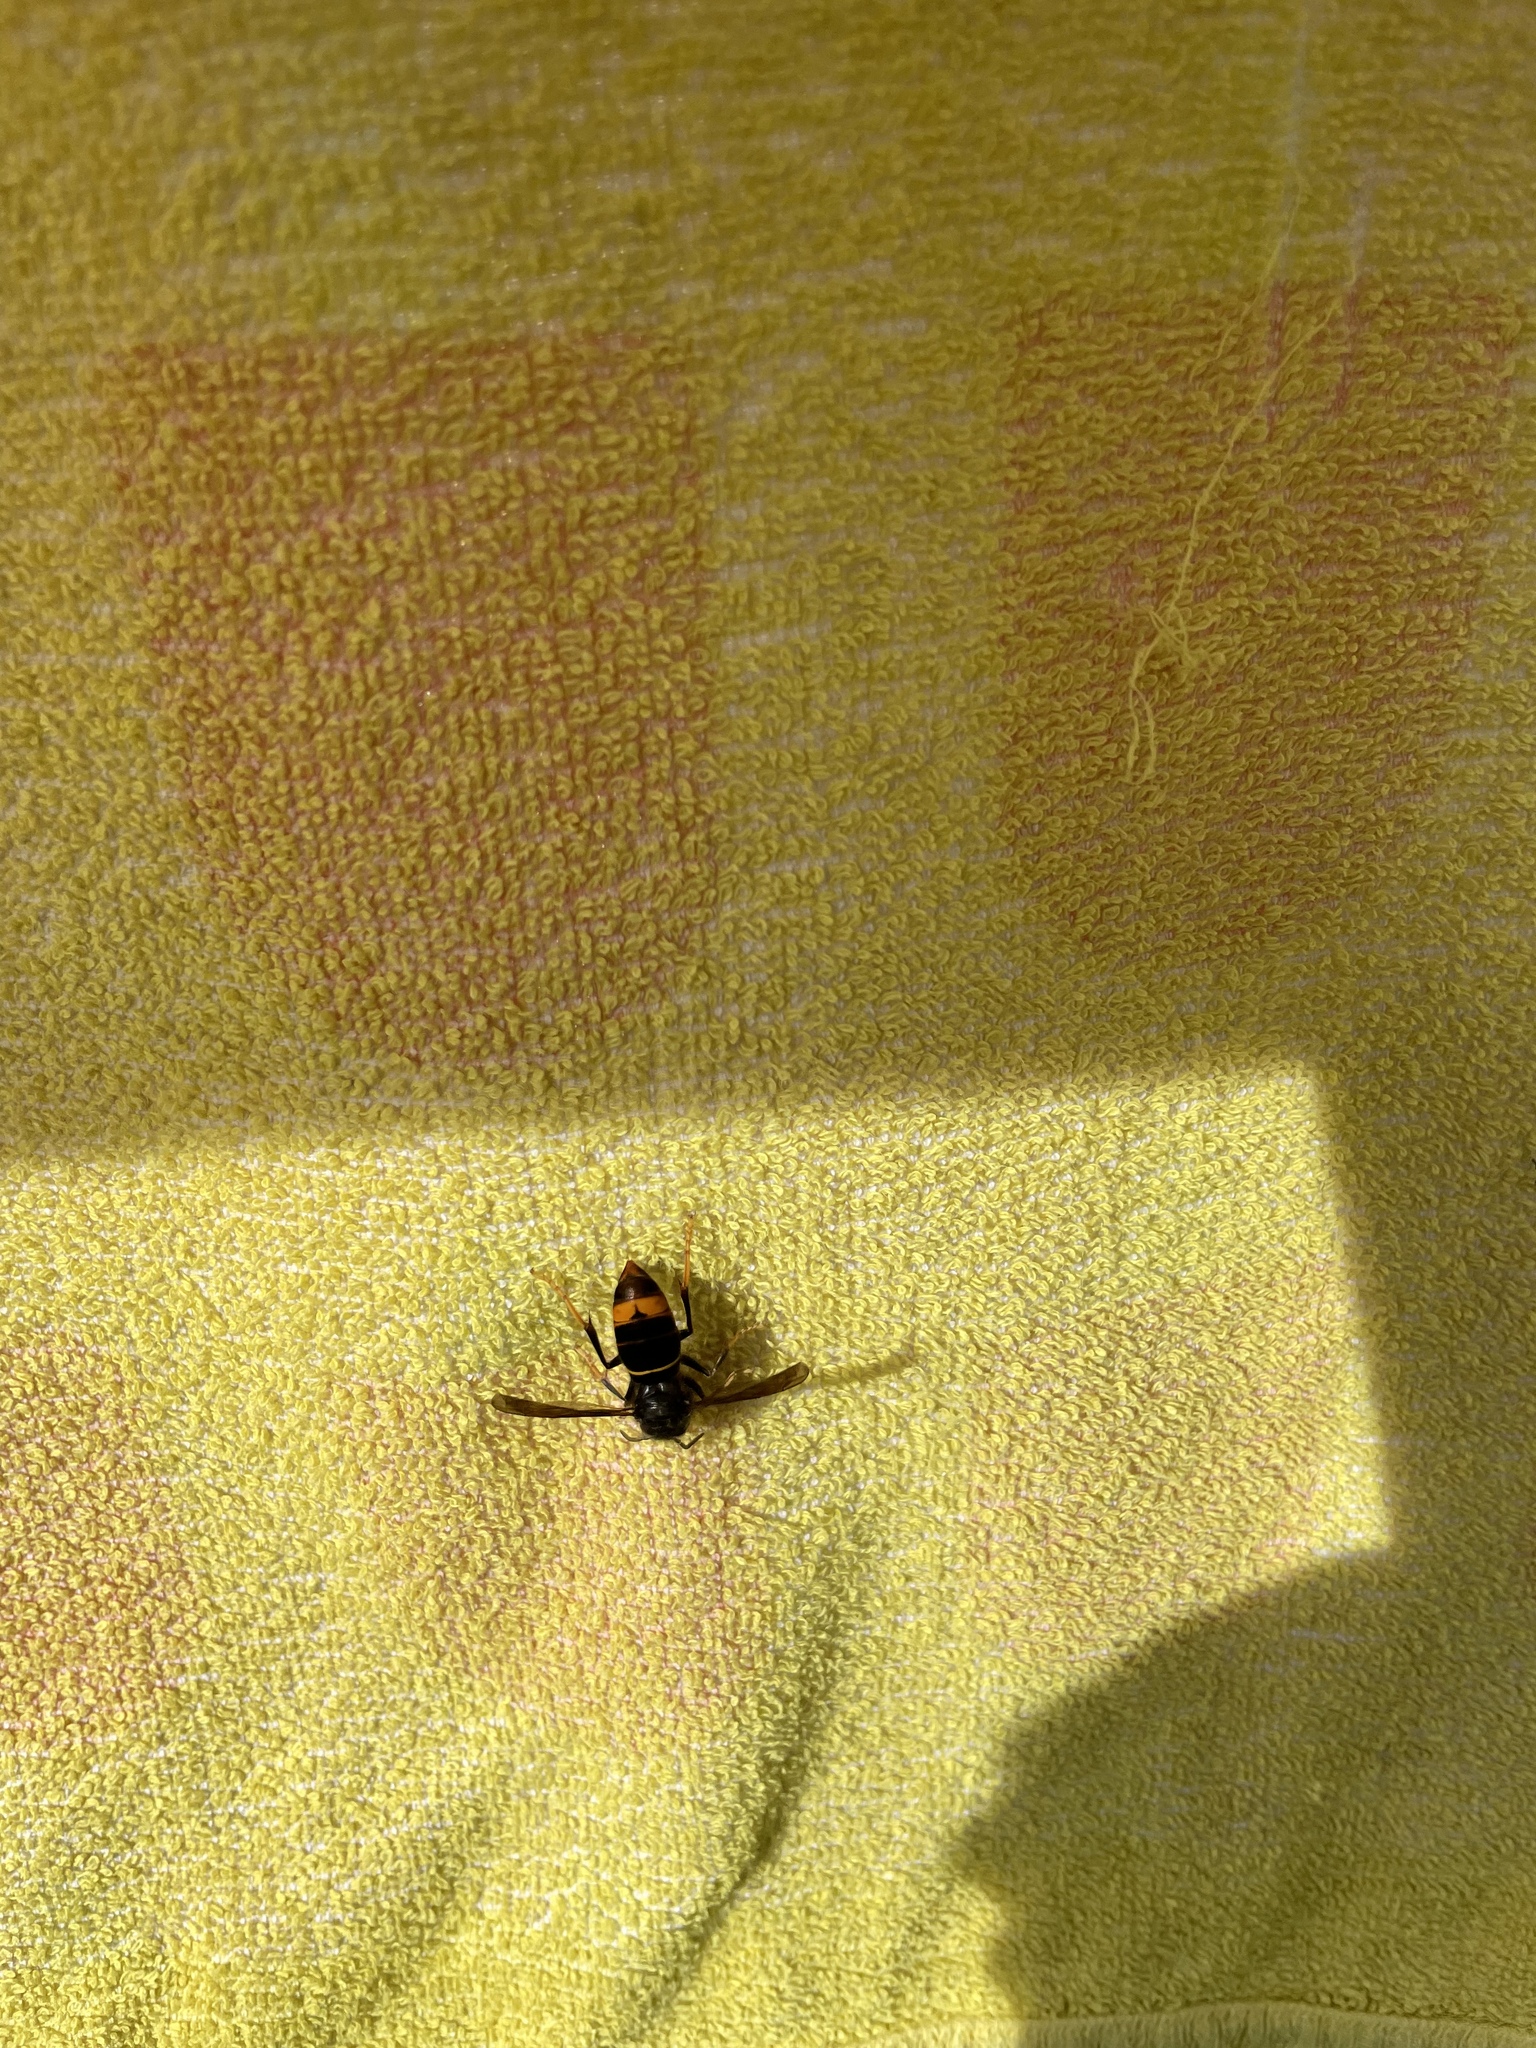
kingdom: Animalia
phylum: Arthropoda
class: Insecta
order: Hymenoptera
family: Vespidae
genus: Vespa
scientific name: Vespa velutina
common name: Asian hornet
